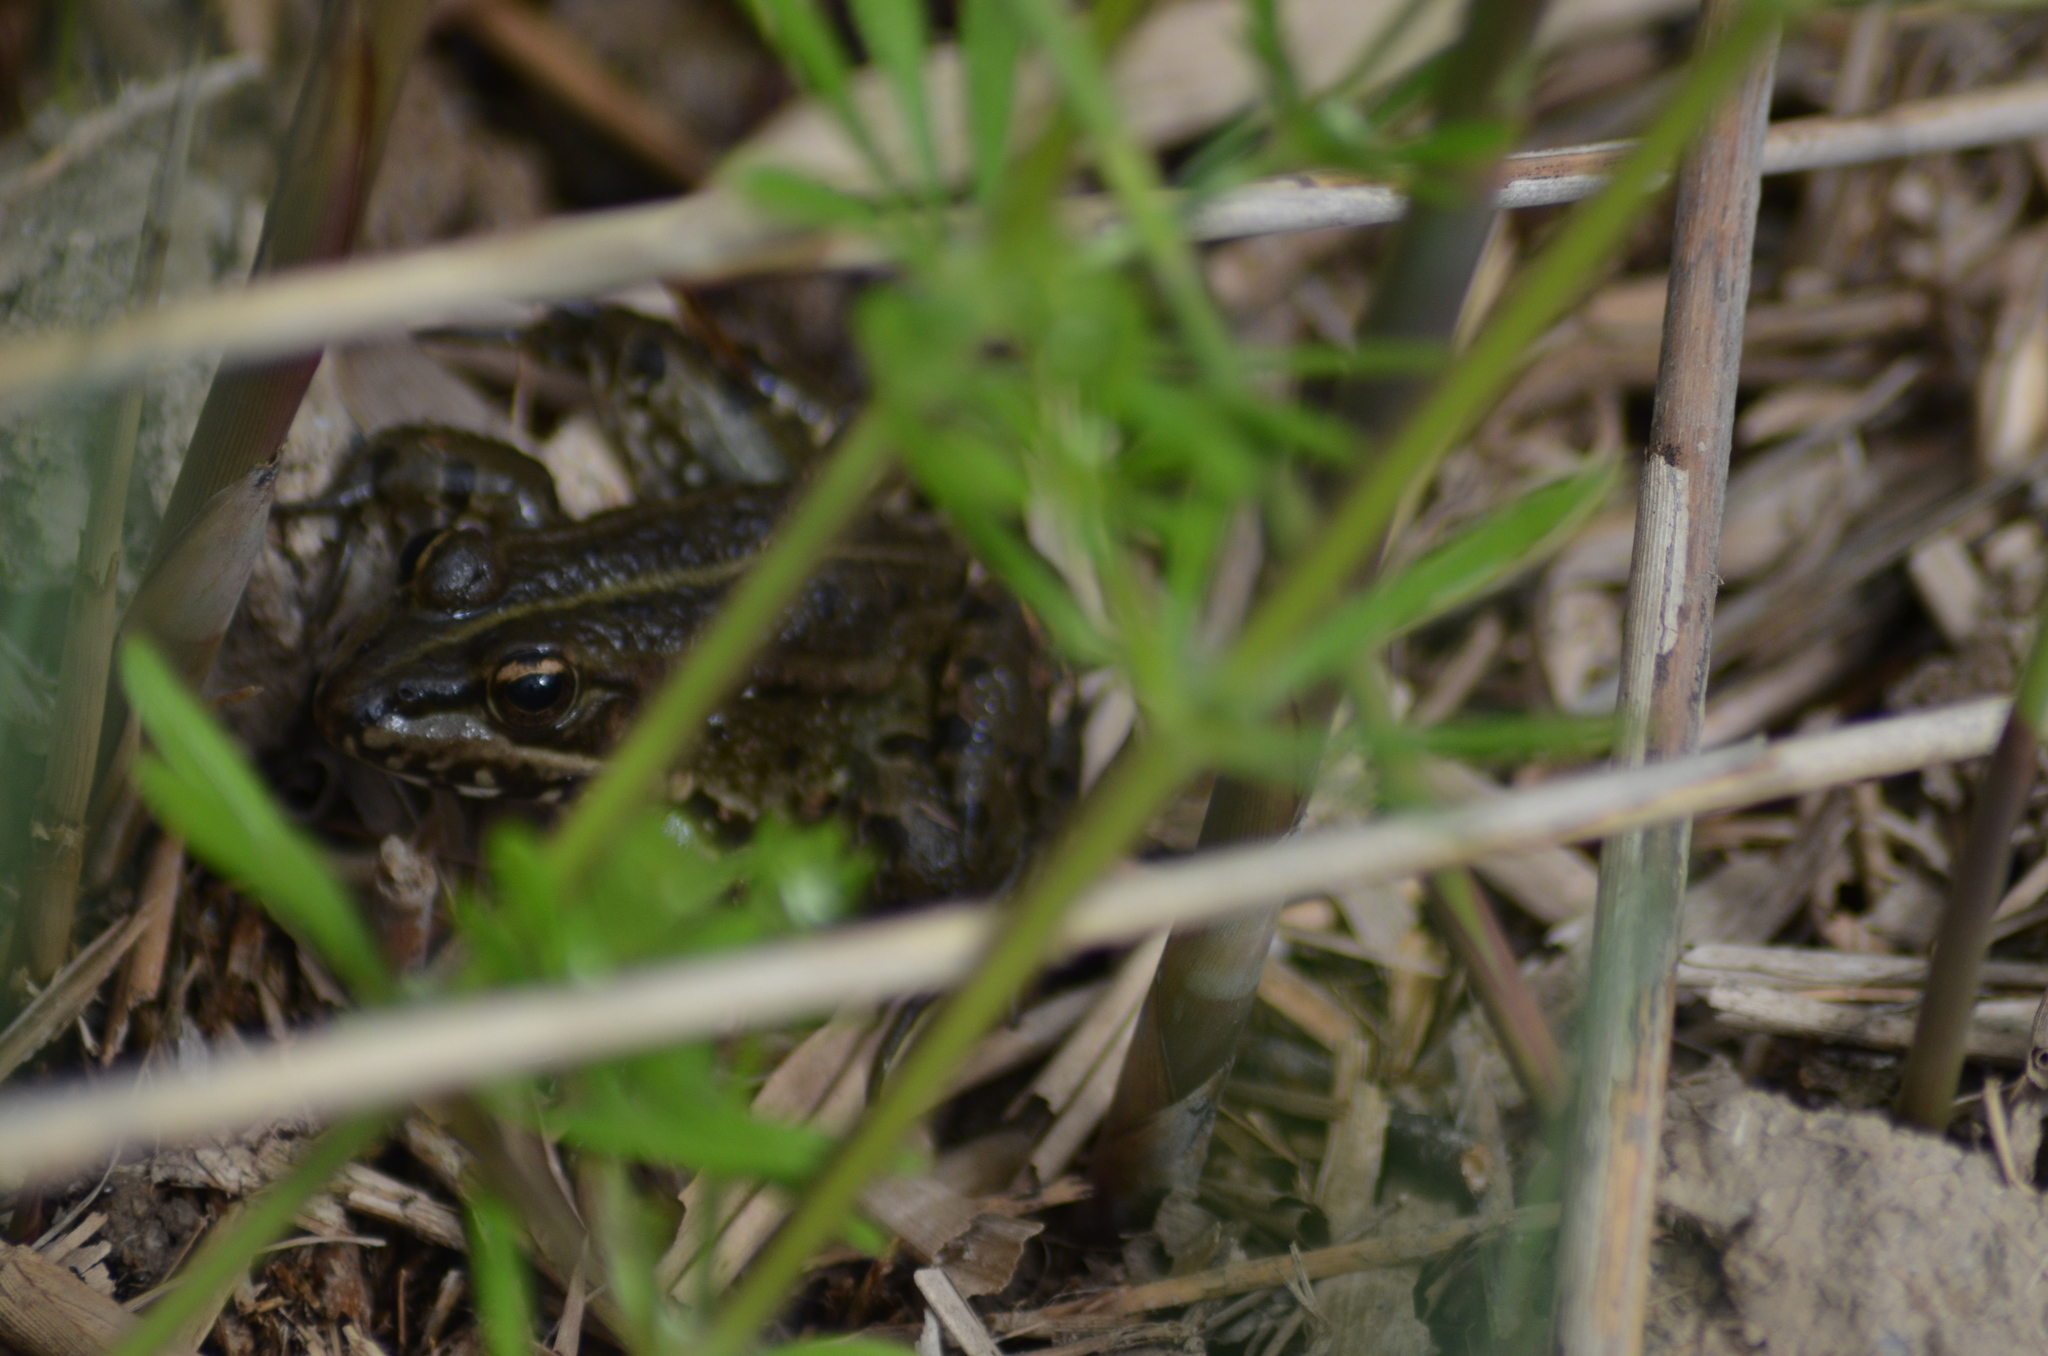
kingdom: Animalia
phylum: Chordata
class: Amphibia
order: Anura
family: Ranidae
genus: Pelophylax
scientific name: Pelophylax perezi
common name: Perez's frog
